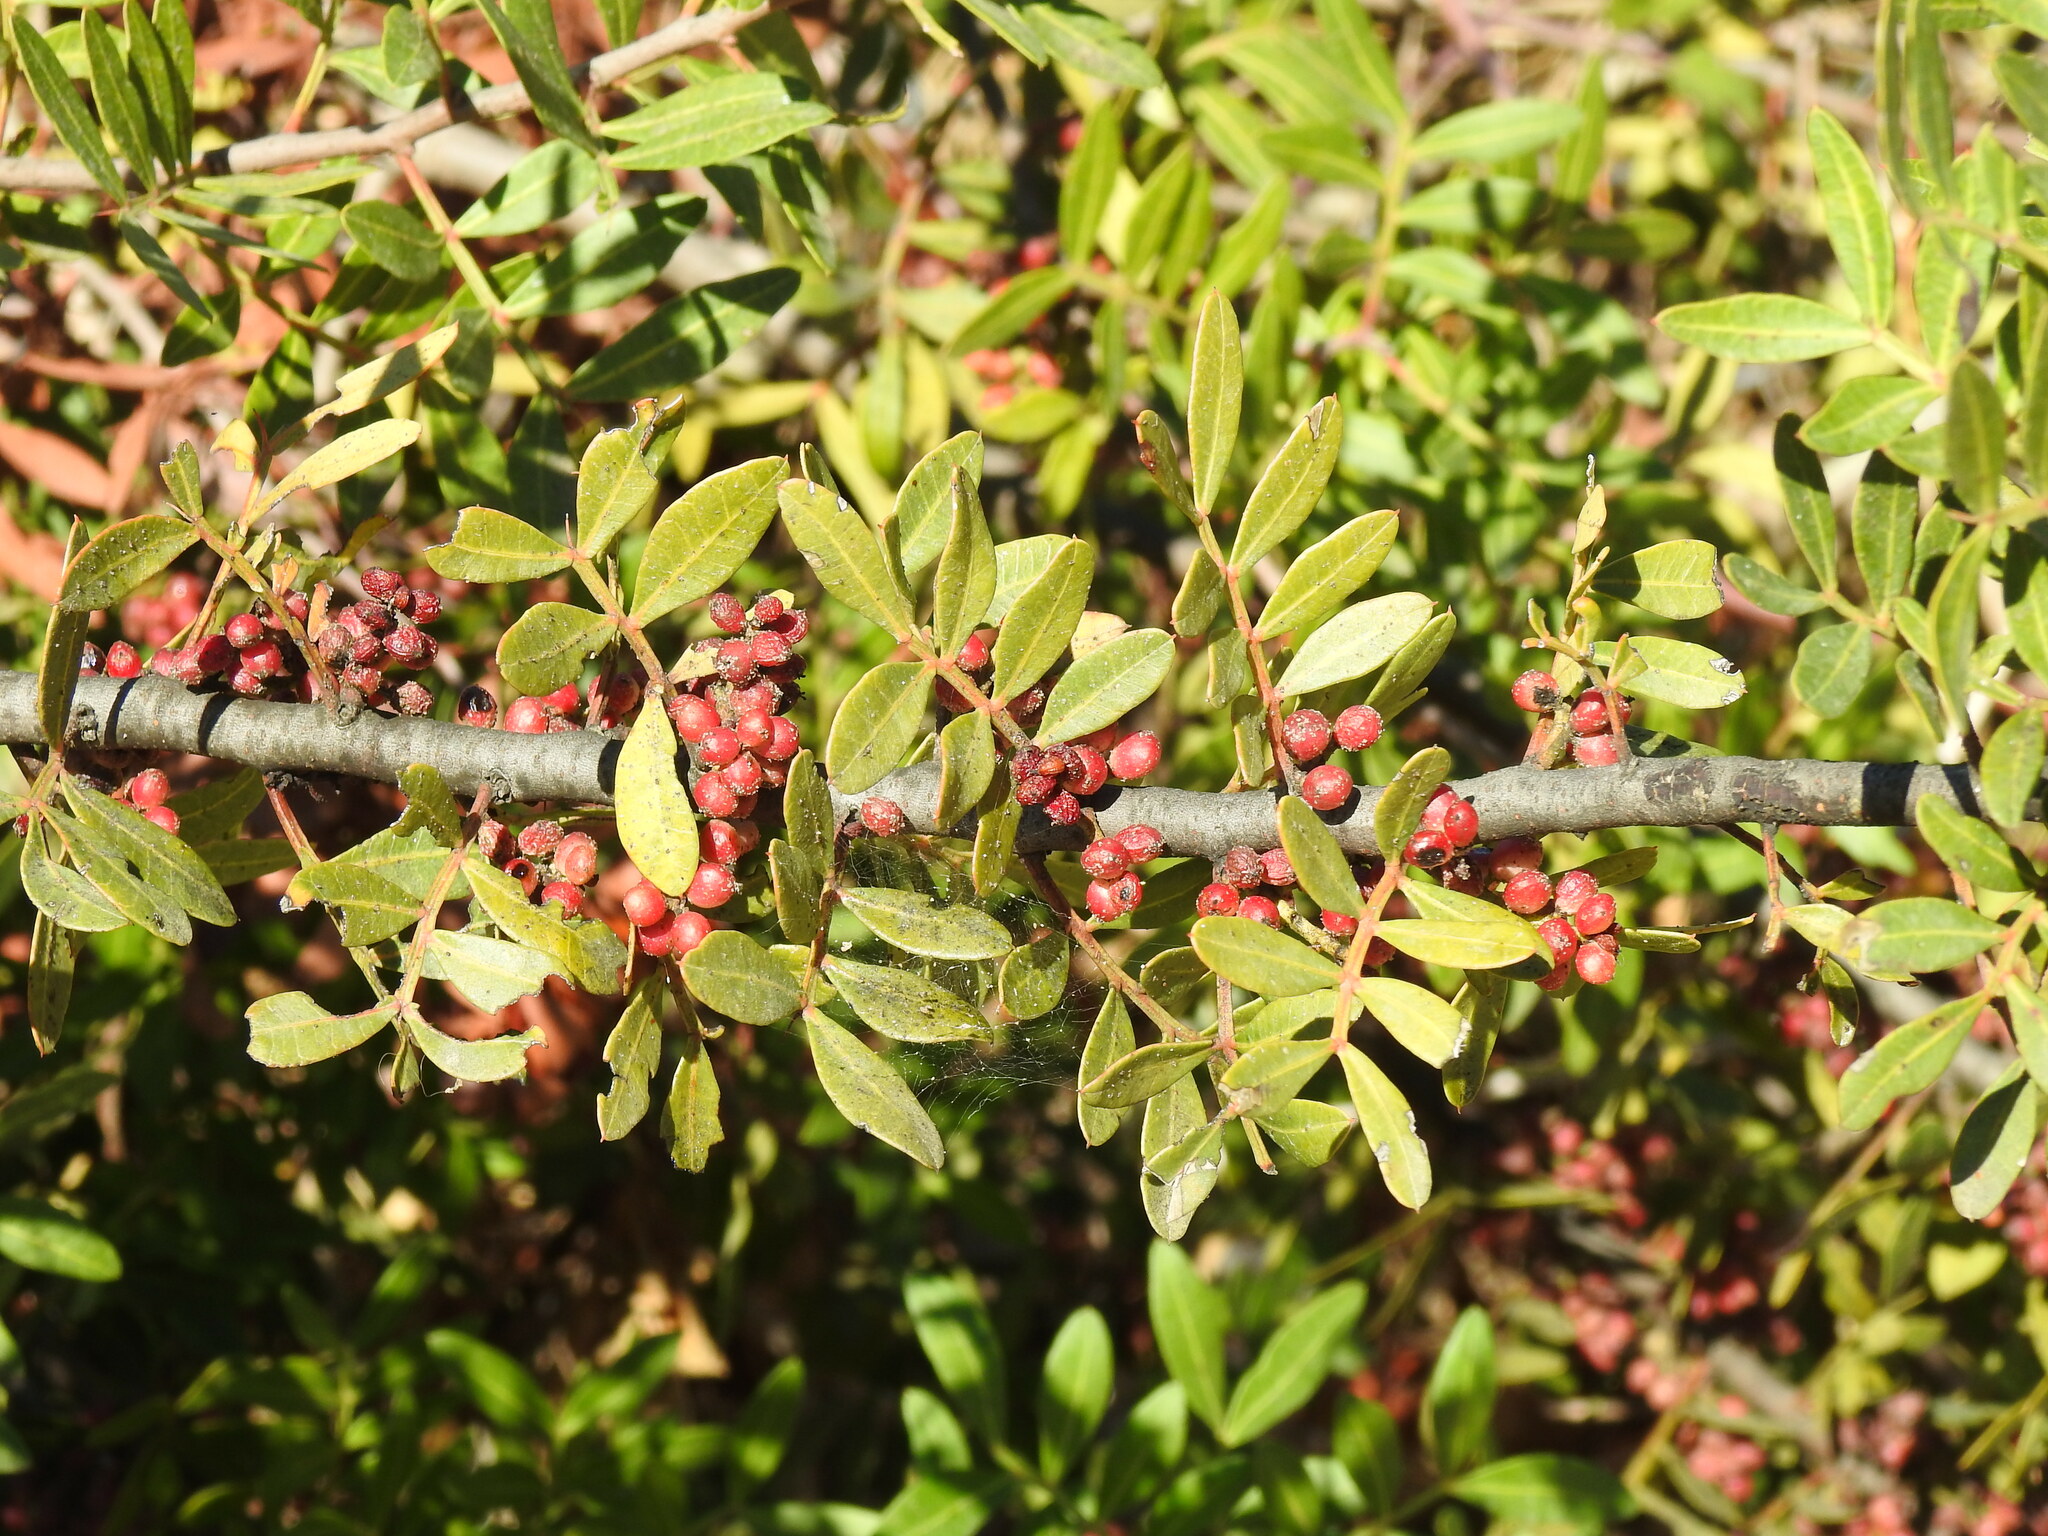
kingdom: Plantae
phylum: Tracheophyta
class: Magnoliopsida
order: Sapindales
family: Anacardiaceae
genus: Pistacia
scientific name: Pistacia lentiscus
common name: Lentisk
